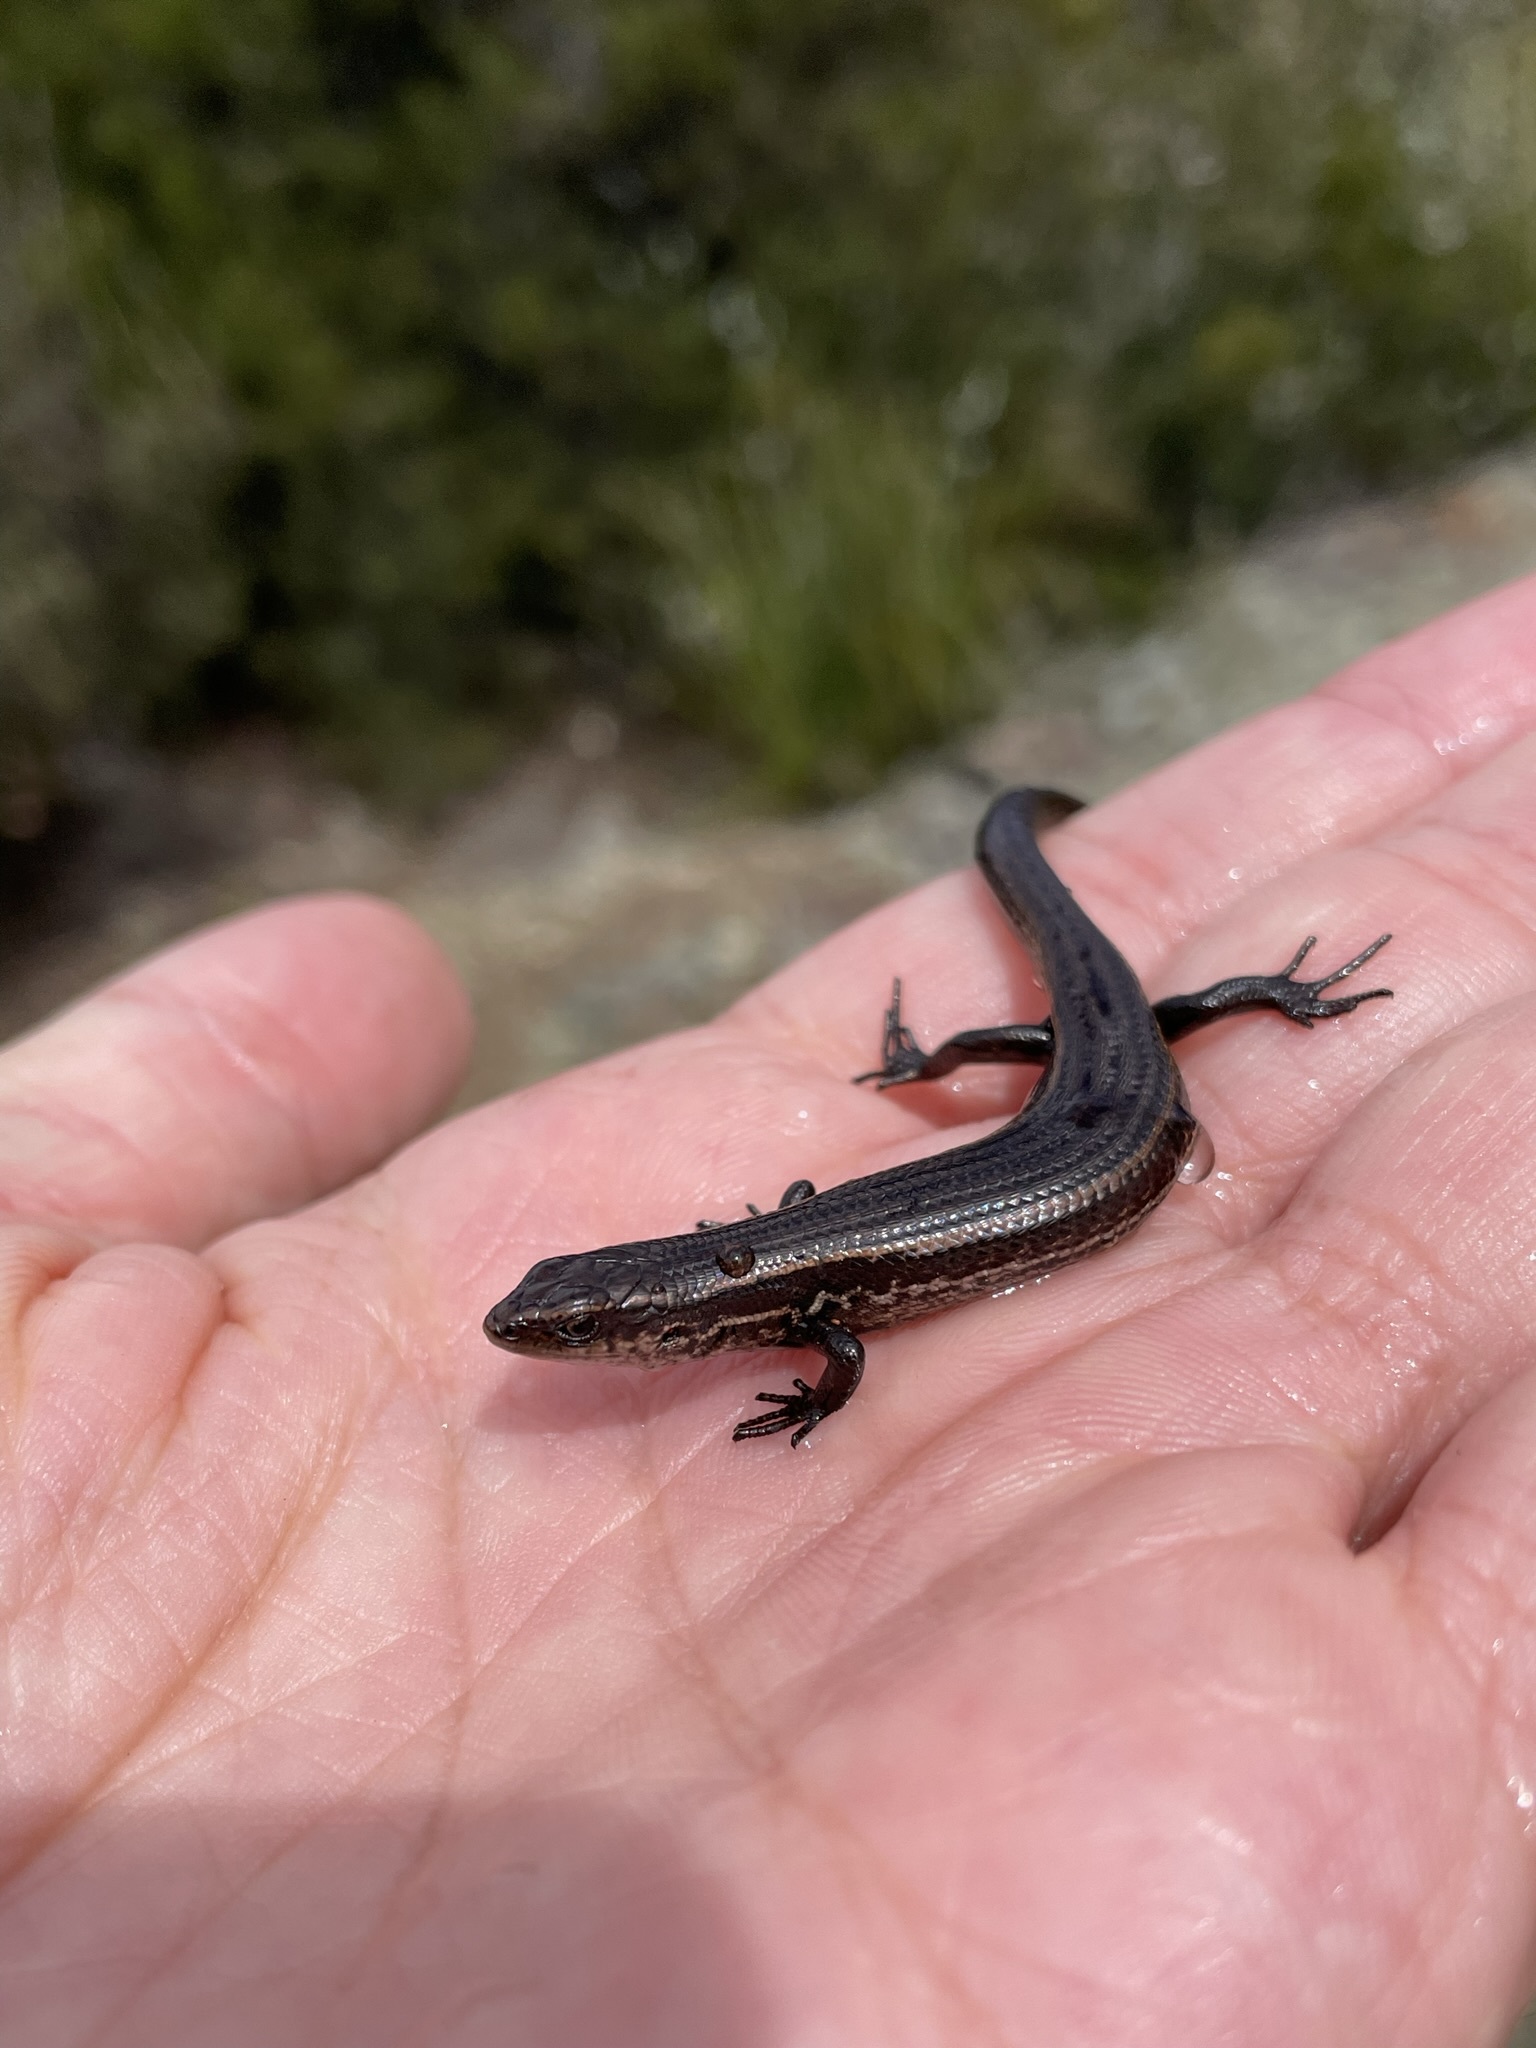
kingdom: Animalia
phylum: Chordata
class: Squamata
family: Scincidae
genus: Carinascincus
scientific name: Carinascincus metallicus
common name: Metallic cool-skink
